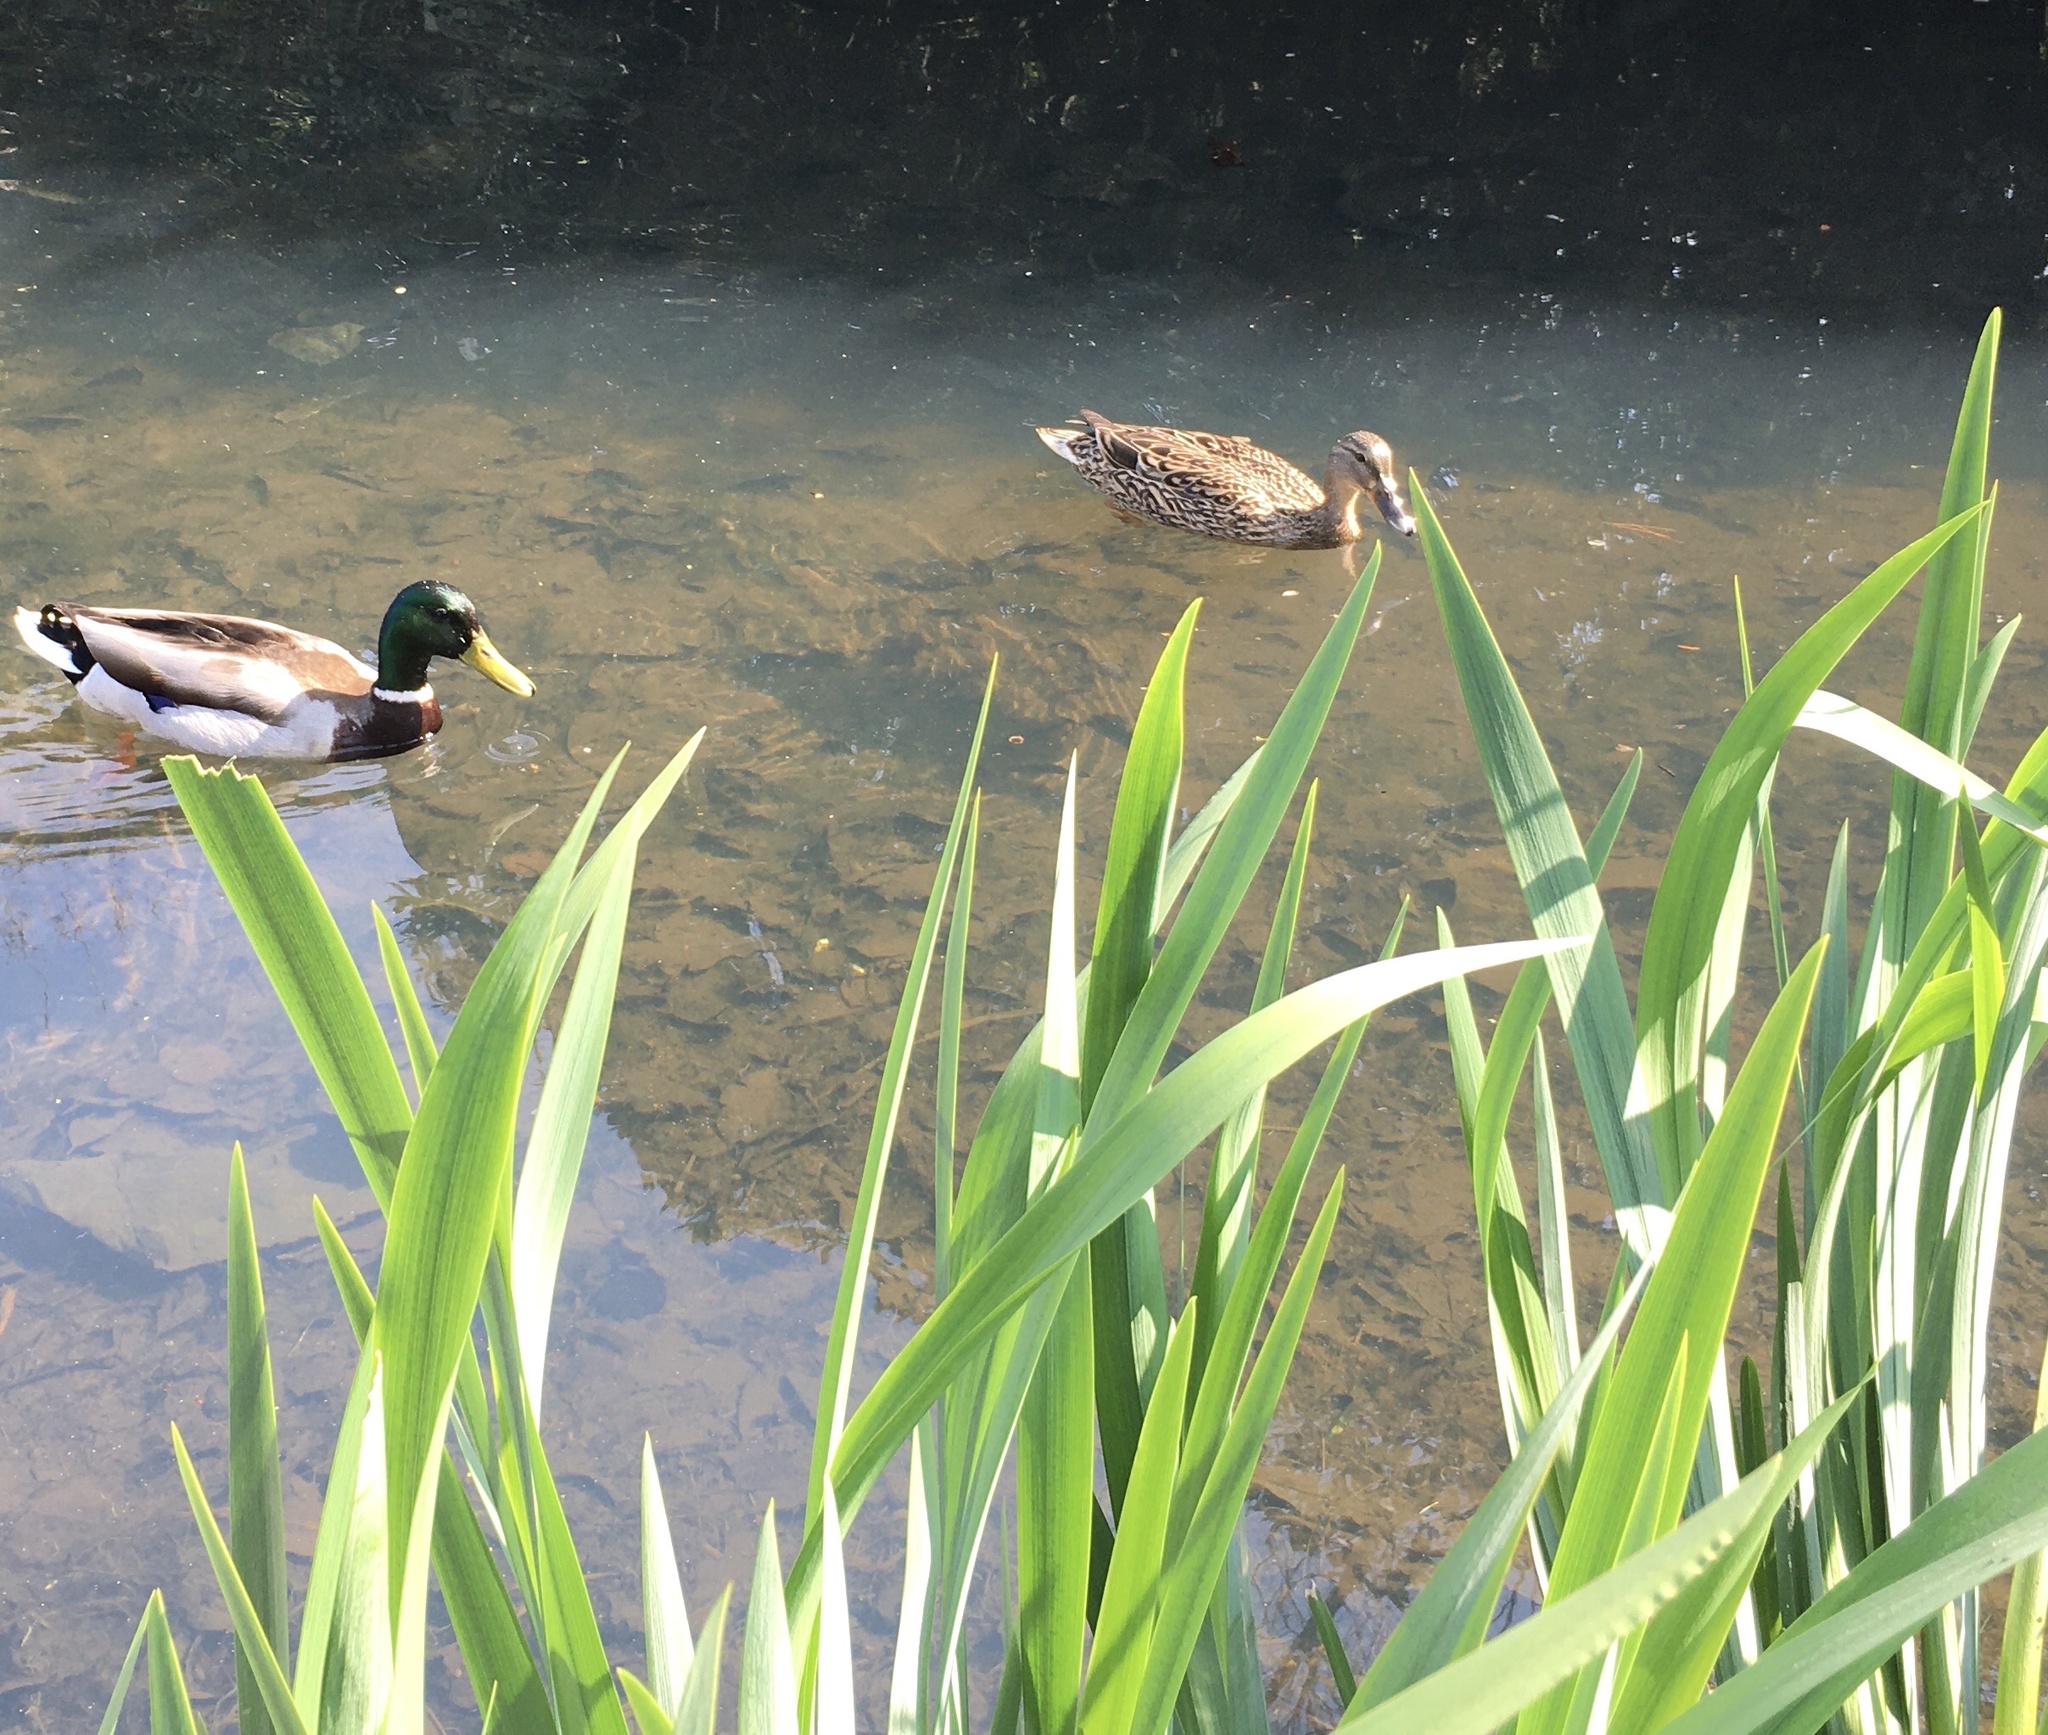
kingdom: Animalia
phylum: Chordata
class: Aves
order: Anseriformes
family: Anatidae
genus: Anas
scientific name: Anas platyrhynchos
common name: Mallard
